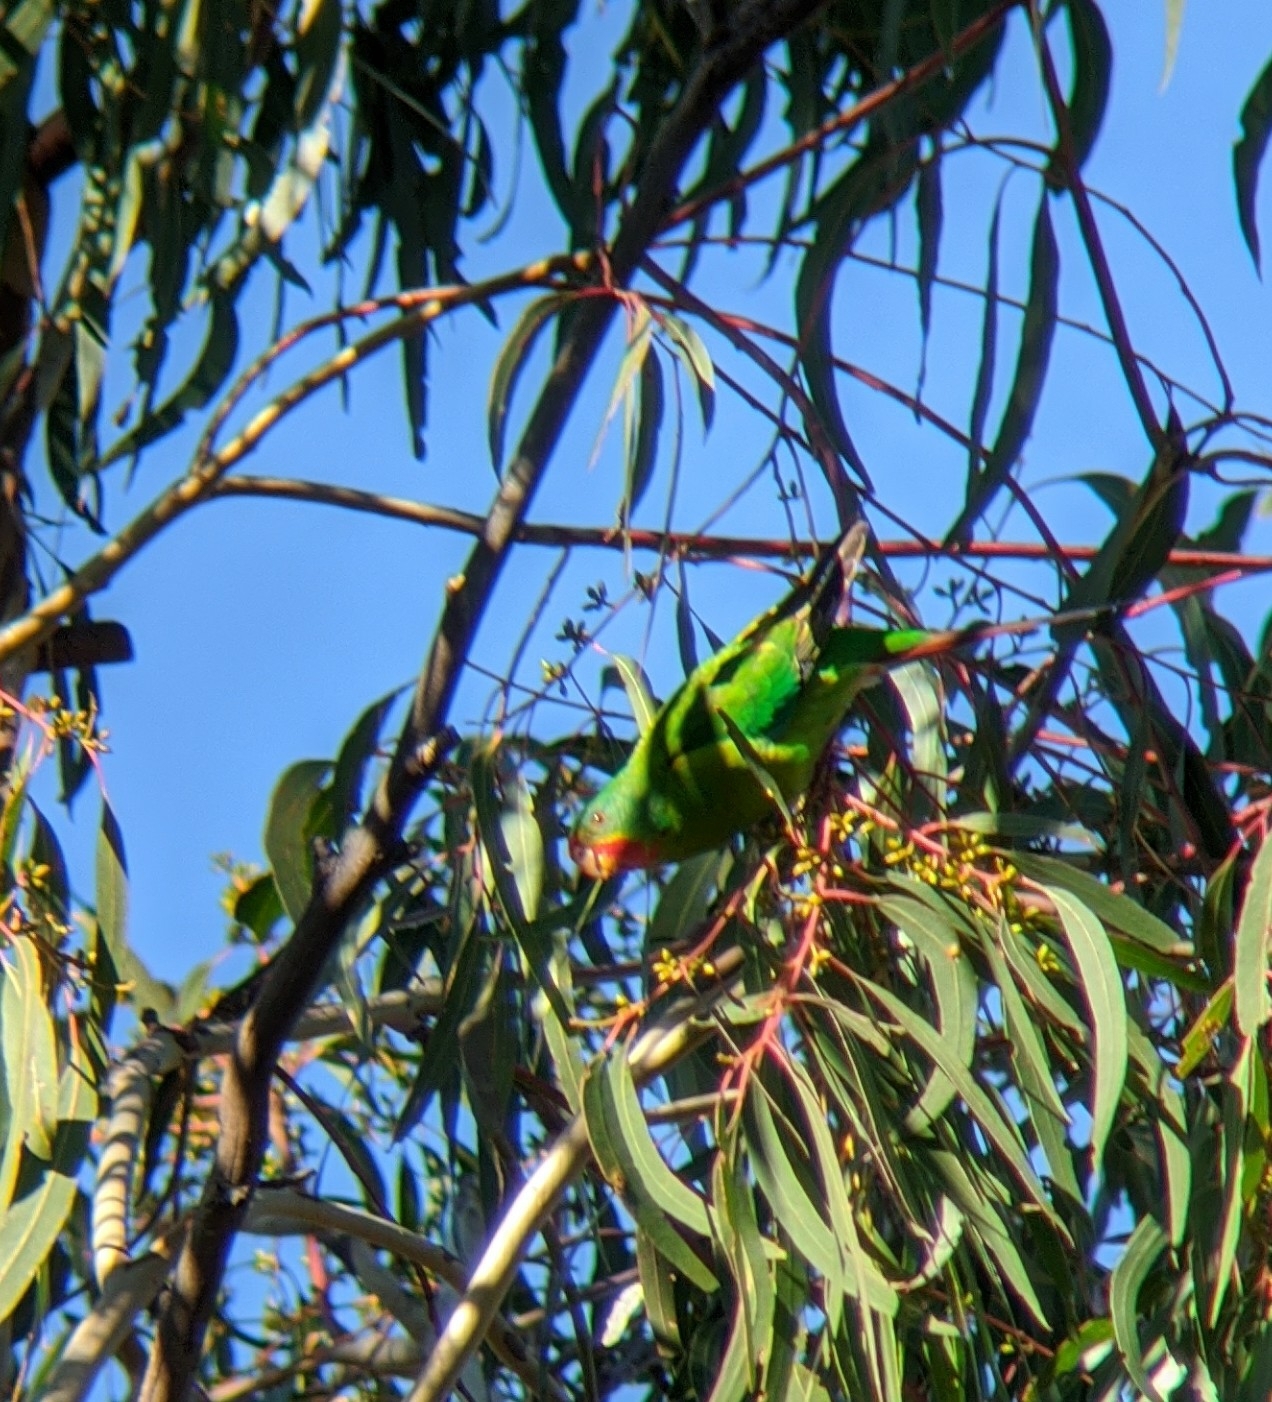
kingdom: Animalia
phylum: Chordata
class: Aves
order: Psittaciformes
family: Psittacidae
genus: Lathamus
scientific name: Lathamus discolor
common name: Swift parrot
